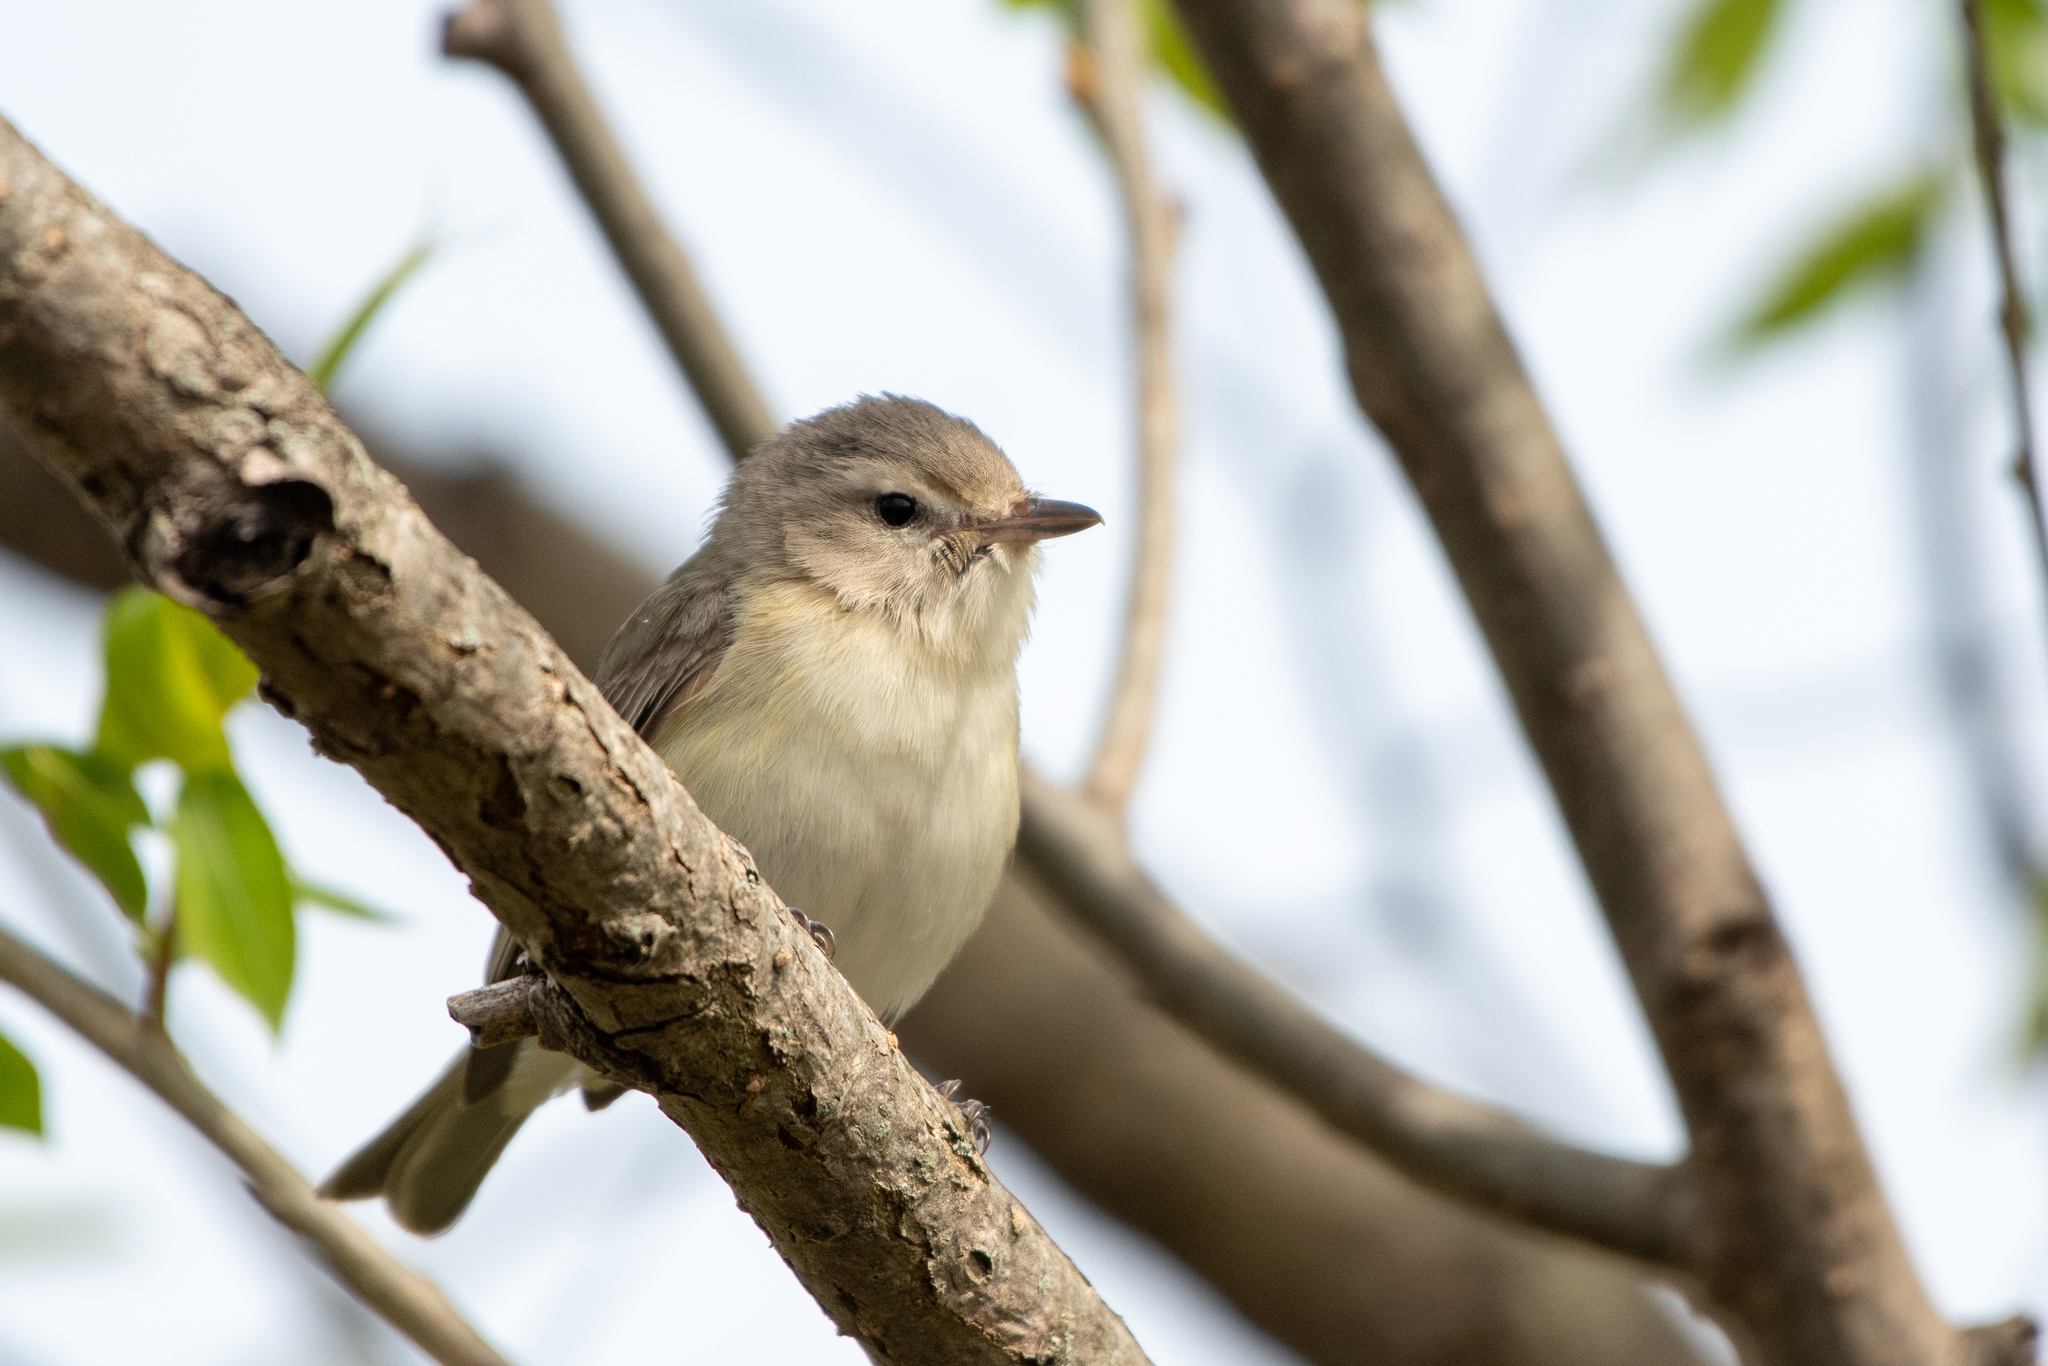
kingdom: Animalia
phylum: Chordata
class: Aves
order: Passeriformes
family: Vireonidae
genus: Vireo
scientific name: Vireo gilvus
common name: Warbling vireo
